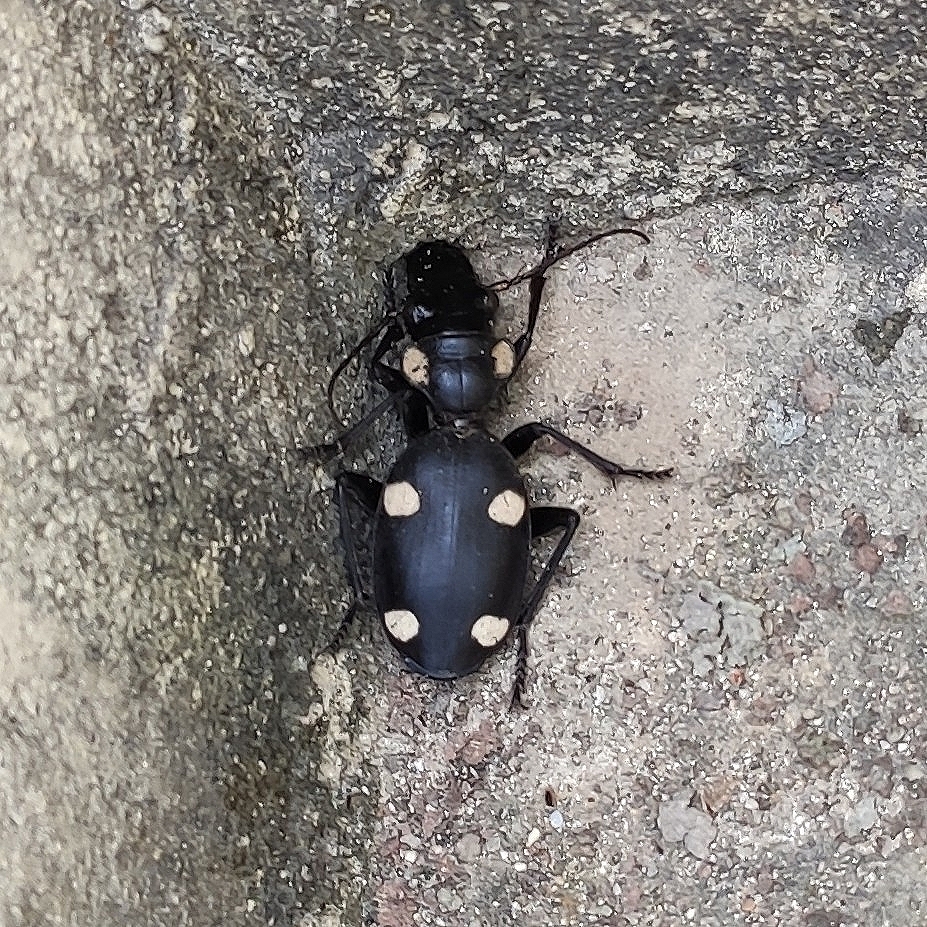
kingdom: Animalia
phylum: Arthropoda
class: Insecta
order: Coleoptera
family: Carabidae
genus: Anthia
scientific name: Anthia sexguttata
